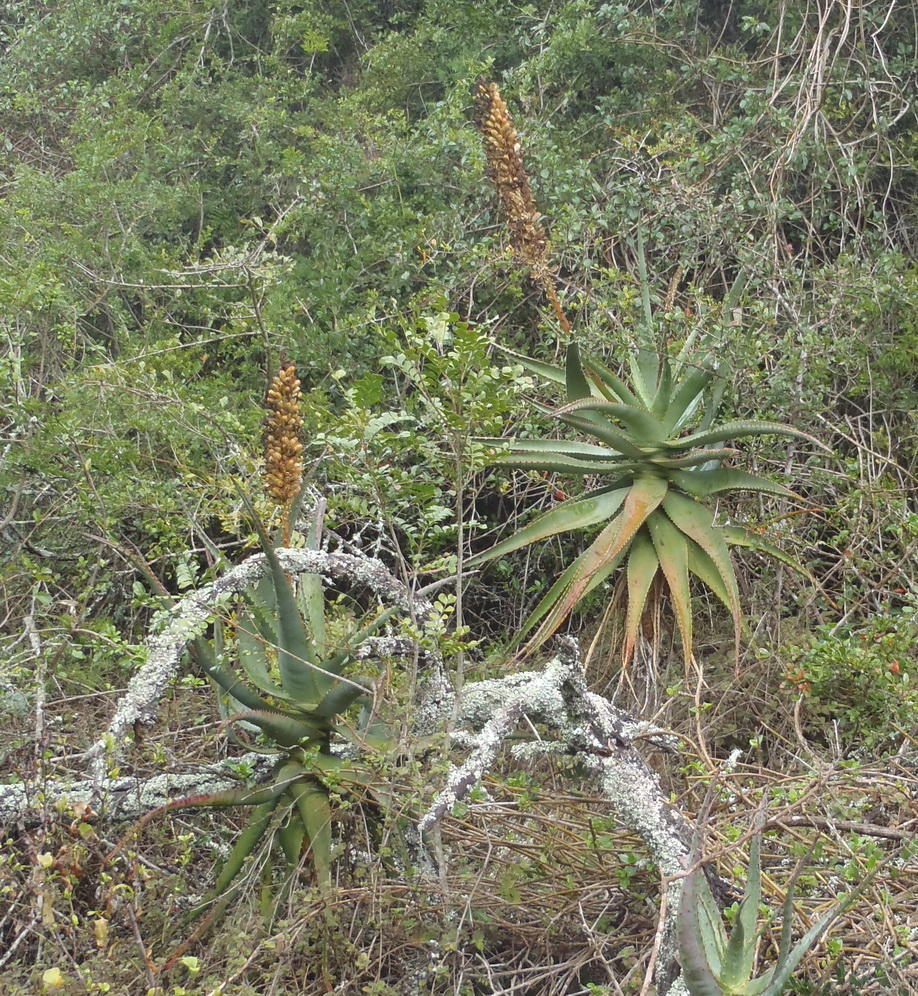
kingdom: Plantae
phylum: Tracheophyta
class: Liliopsida
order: Asparagales
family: Asphodelaceae
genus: Aloe
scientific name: Aloe ferox
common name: Bitter aloe
